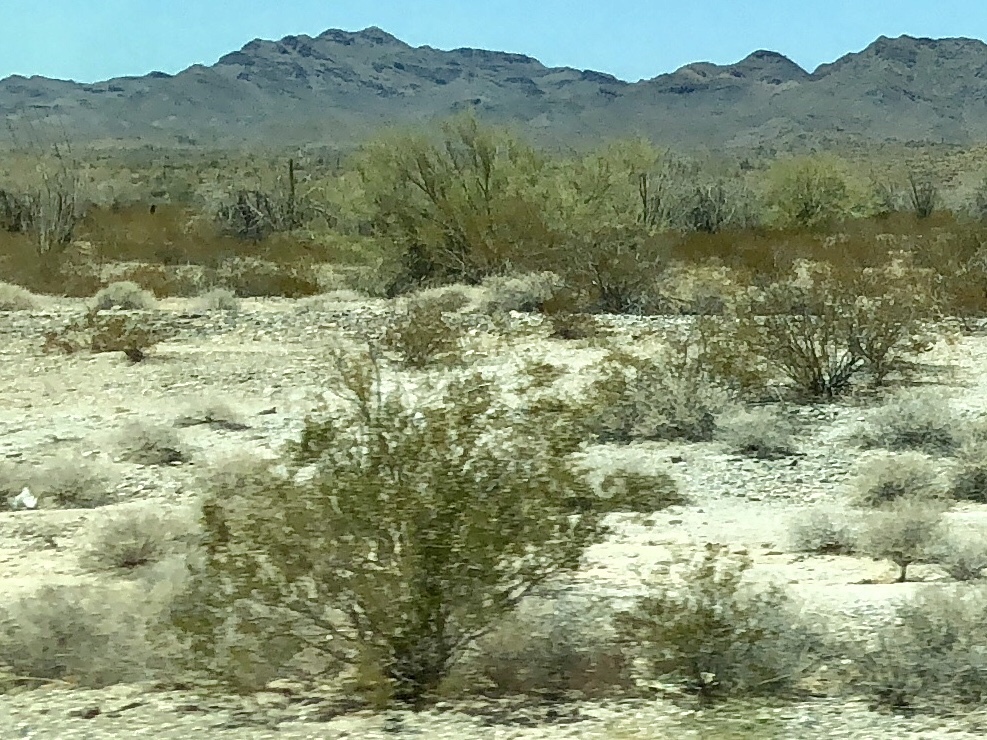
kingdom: Plantae
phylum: Tracheophyta
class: Magnoliopsida
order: Zygophyllales
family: Zygophyllaceae
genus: Larrea
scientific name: Larrea tridentata
